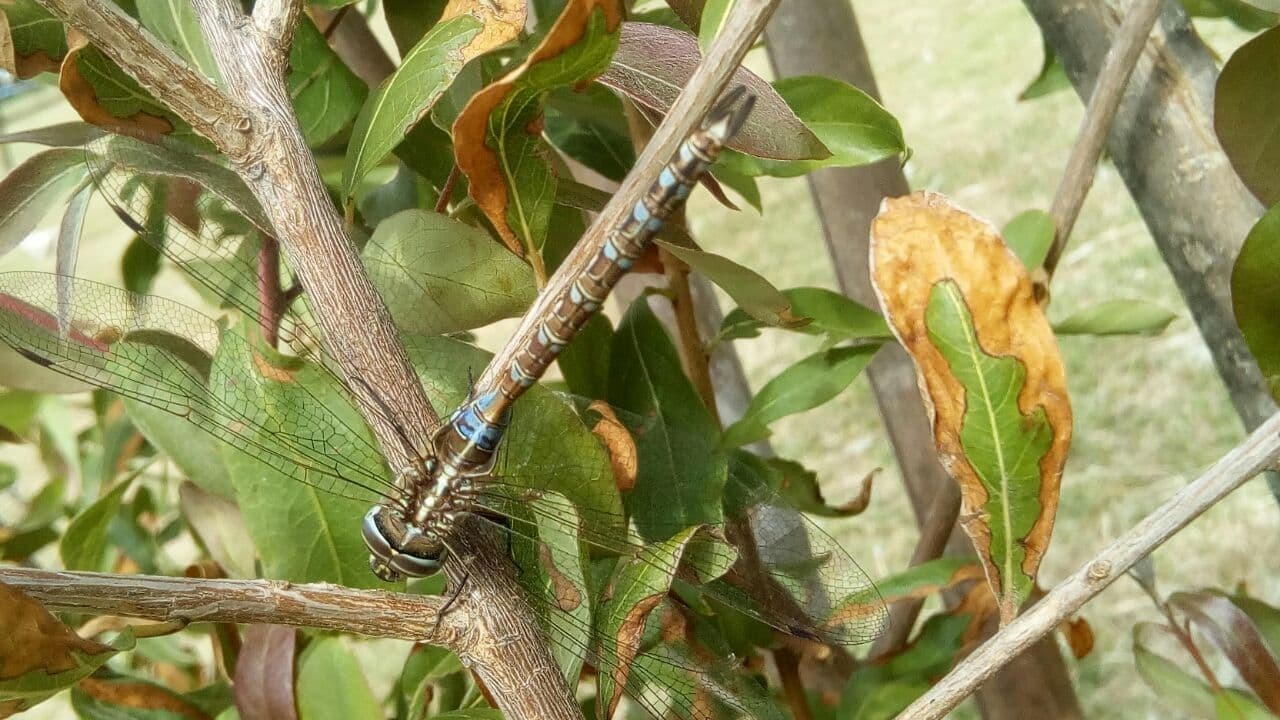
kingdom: Animalia
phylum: Arthropoda
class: Insecta
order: Odonata
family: Aeshnidae
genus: Rhionaeschna
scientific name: Rhionaeschna bonariensis
